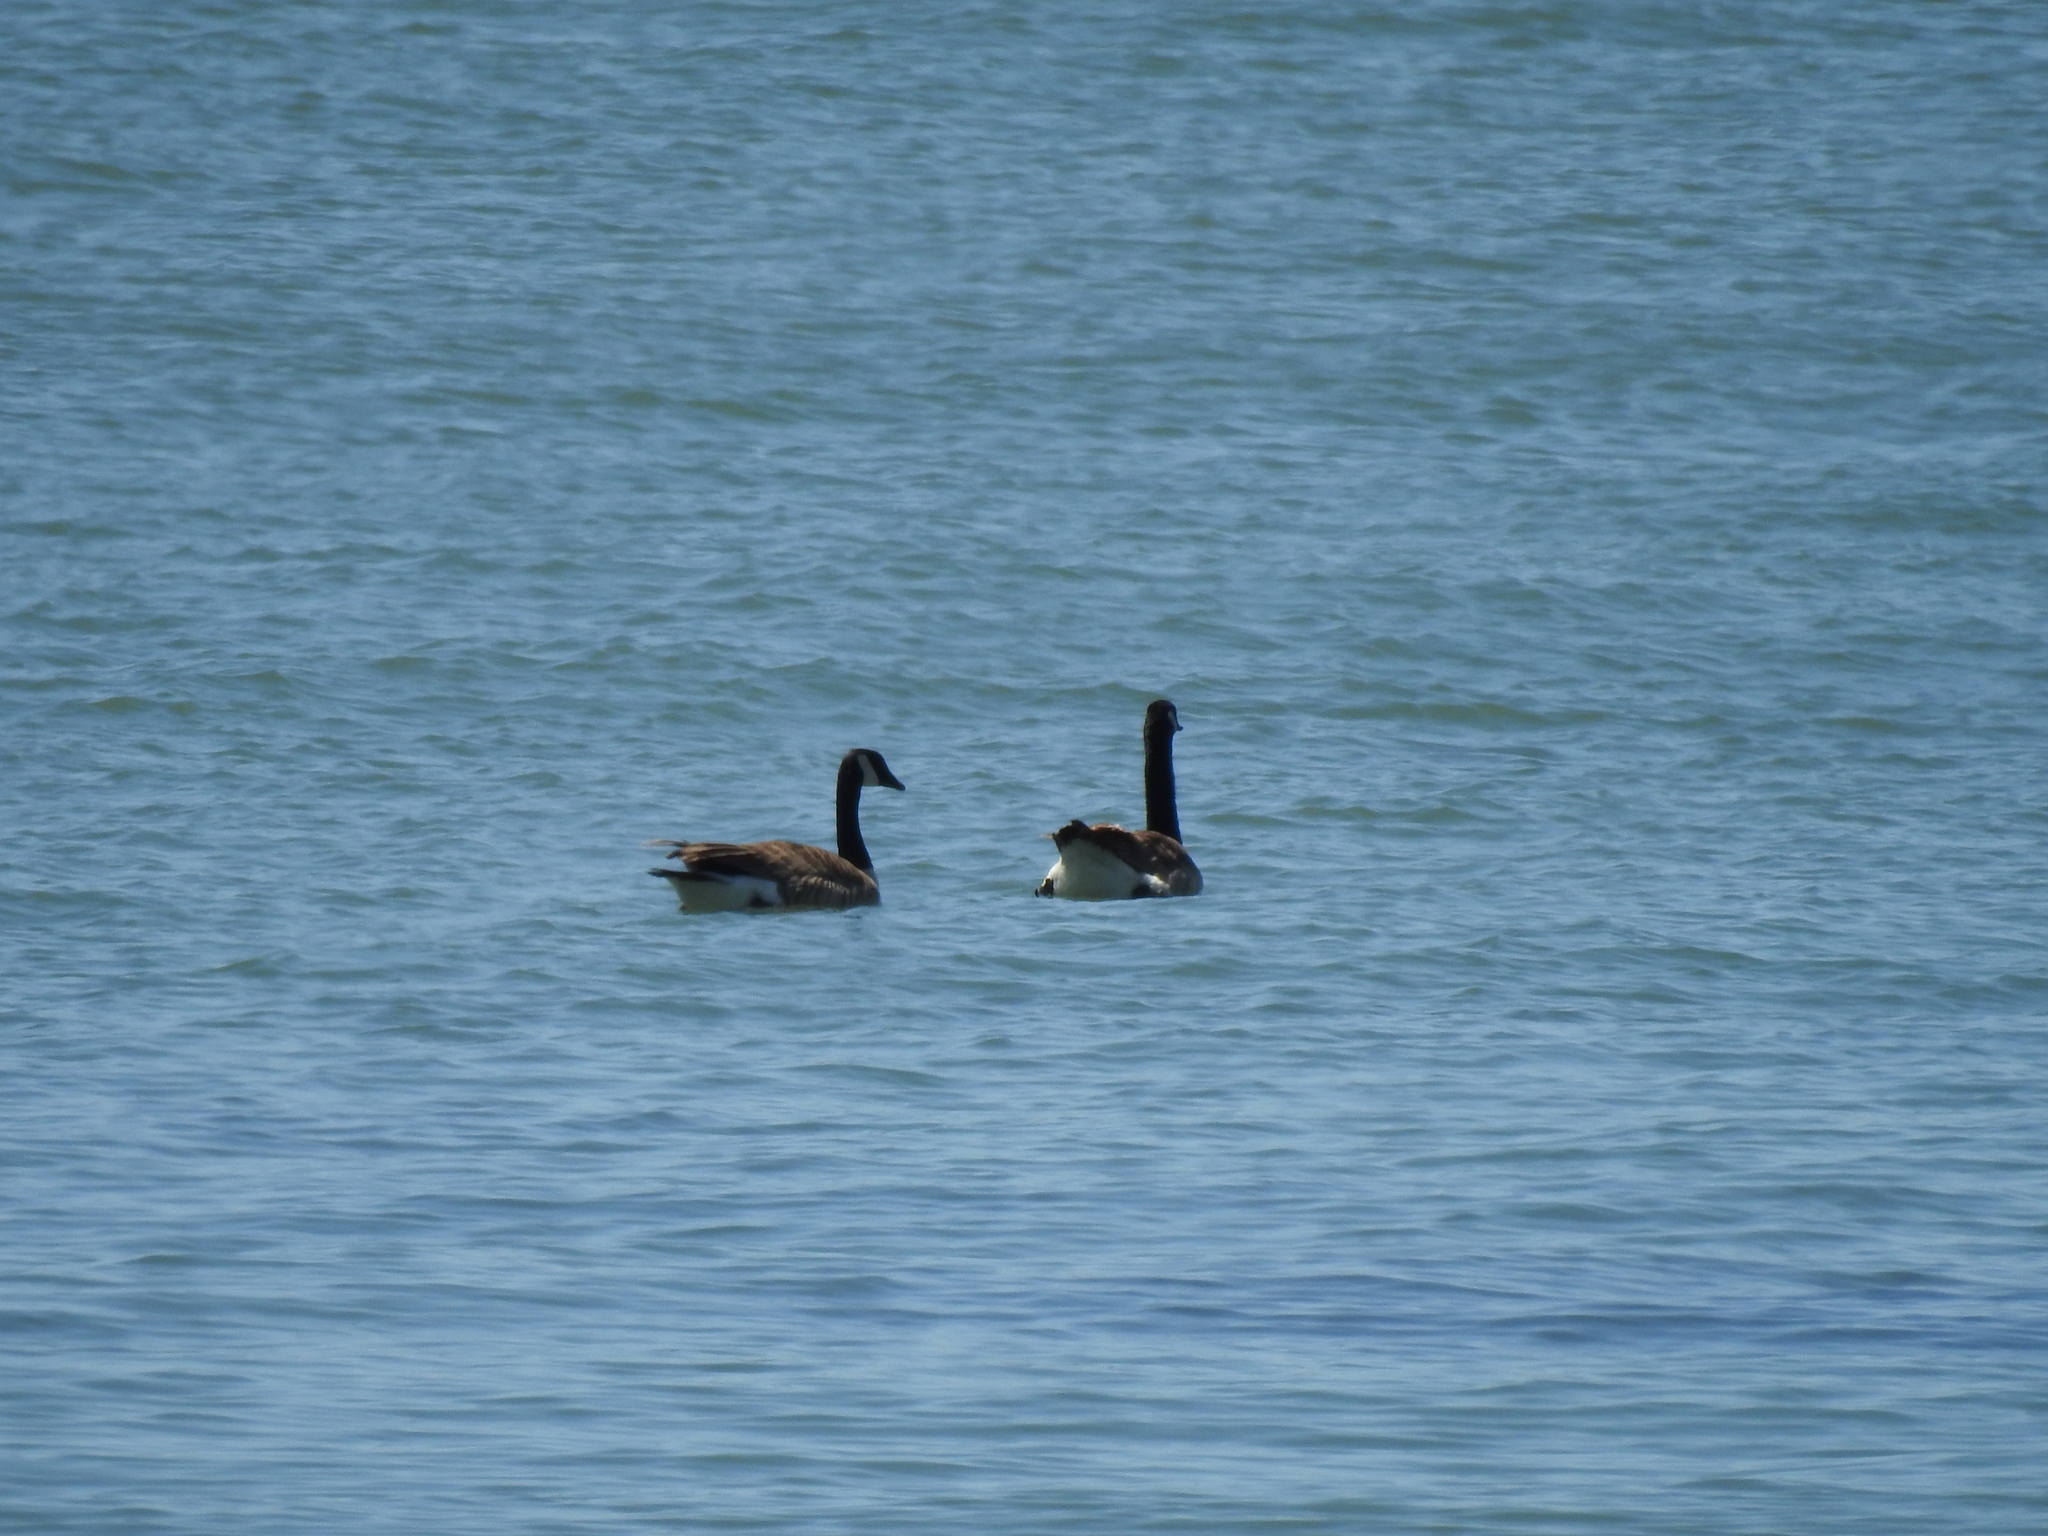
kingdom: Animalia
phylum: Chordata
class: Aves
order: Anseriformes
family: Anatidae
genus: Branta
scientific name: Branta canadensis
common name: Canada goose
